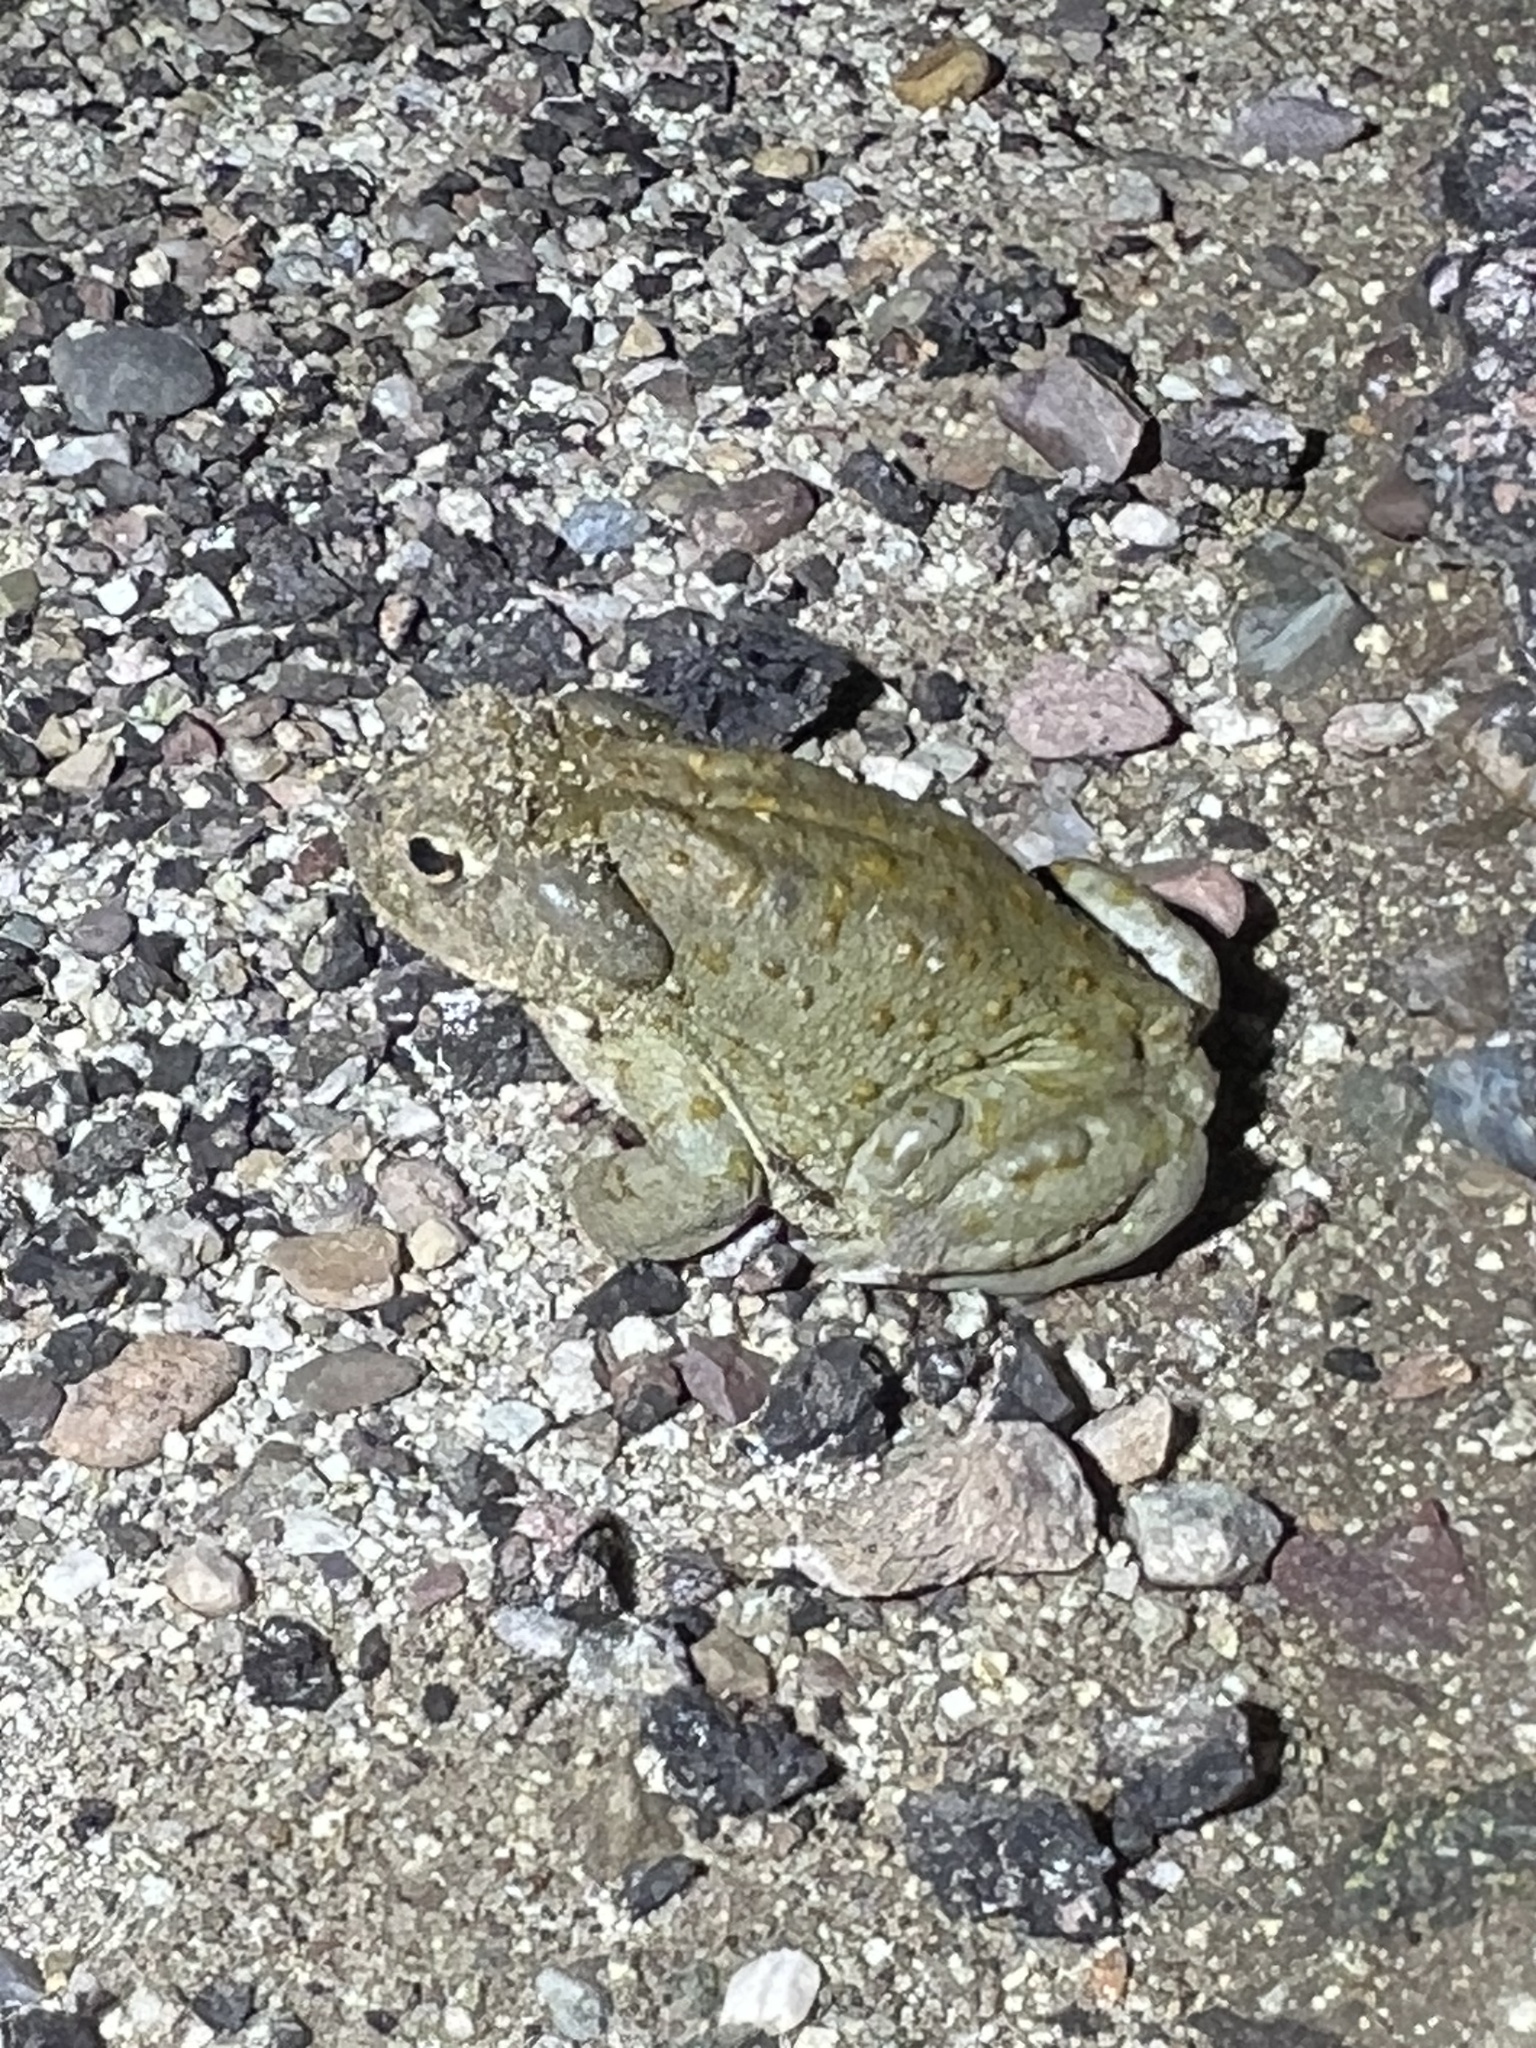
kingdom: Animalia
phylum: Chordata
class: Amphibia
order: Anura
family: Bufonidae
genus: Incilius
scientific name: Incilius alvarius
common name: Sonoran desert toad
